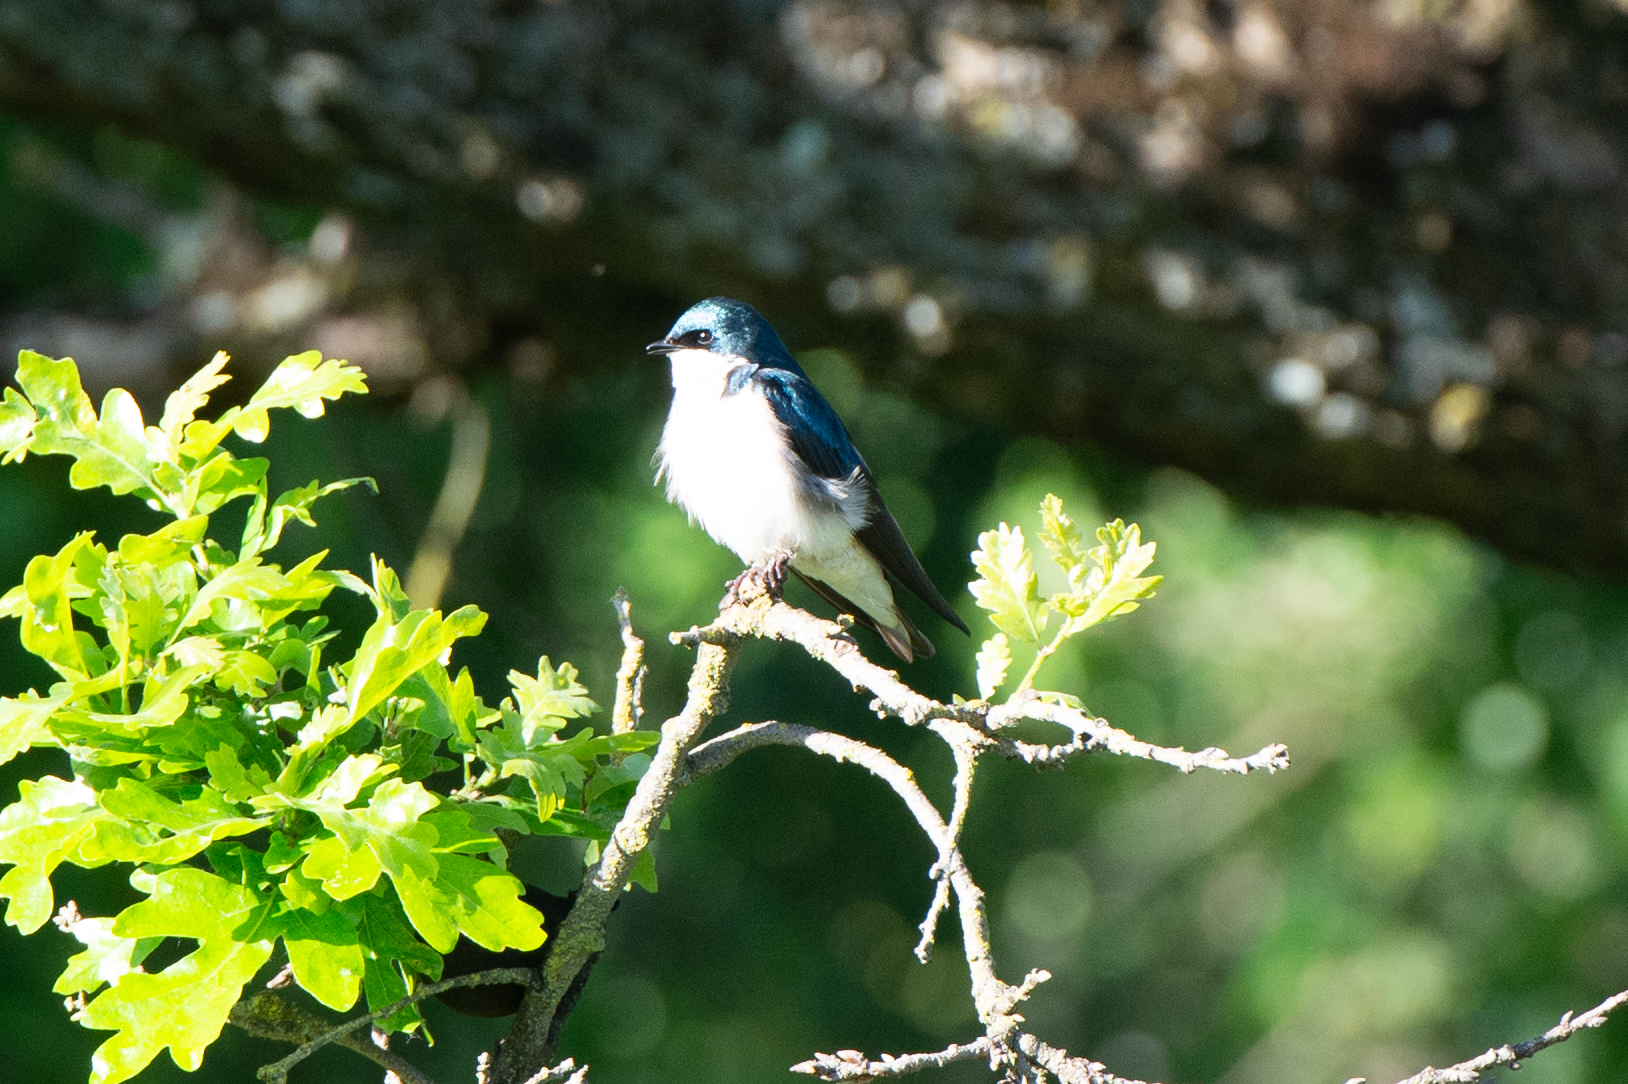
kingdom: Animalia
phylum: Chordata
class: Aves
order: Passeriformes
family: Hirundinidae
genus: Tachycineta
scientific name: Tachycineta bicolor
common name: Tree swallow
